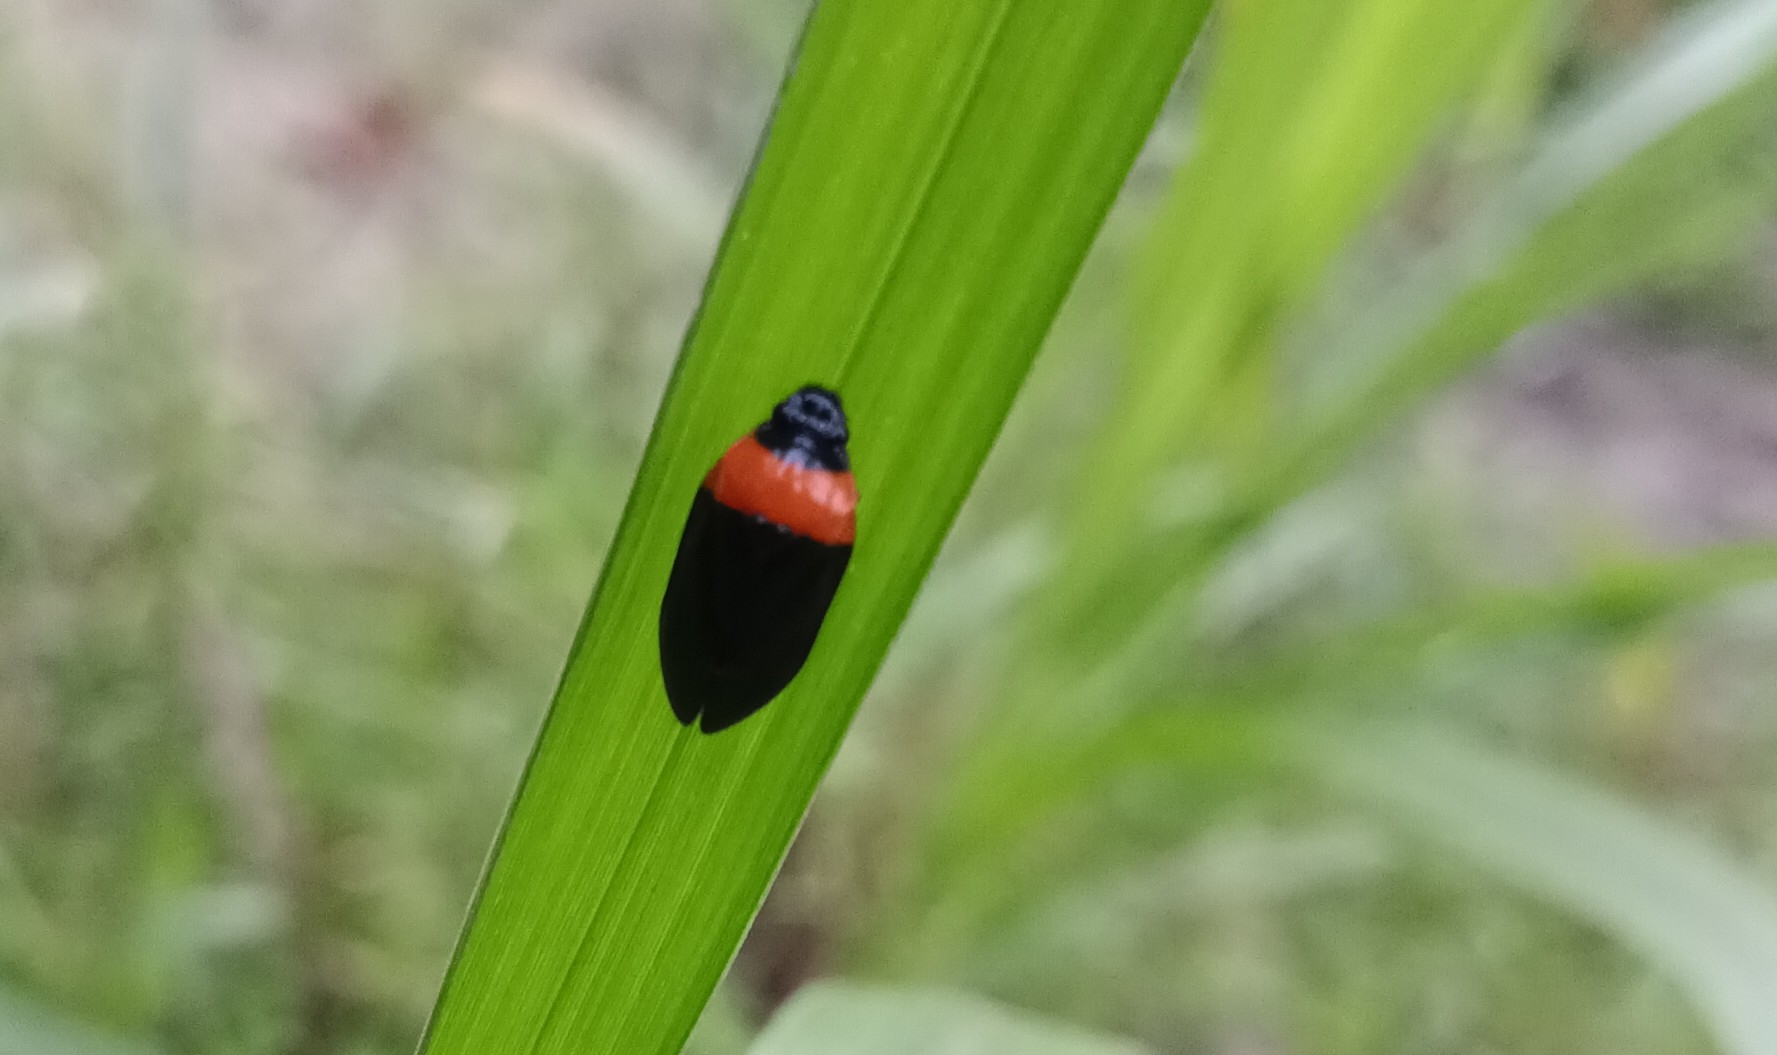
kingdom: Animalia
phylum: Arthropoda
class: Insecta
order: Hemiptera
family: Cercopidae
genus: Phymatostetha
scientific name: Phymatostetha deschampsi
